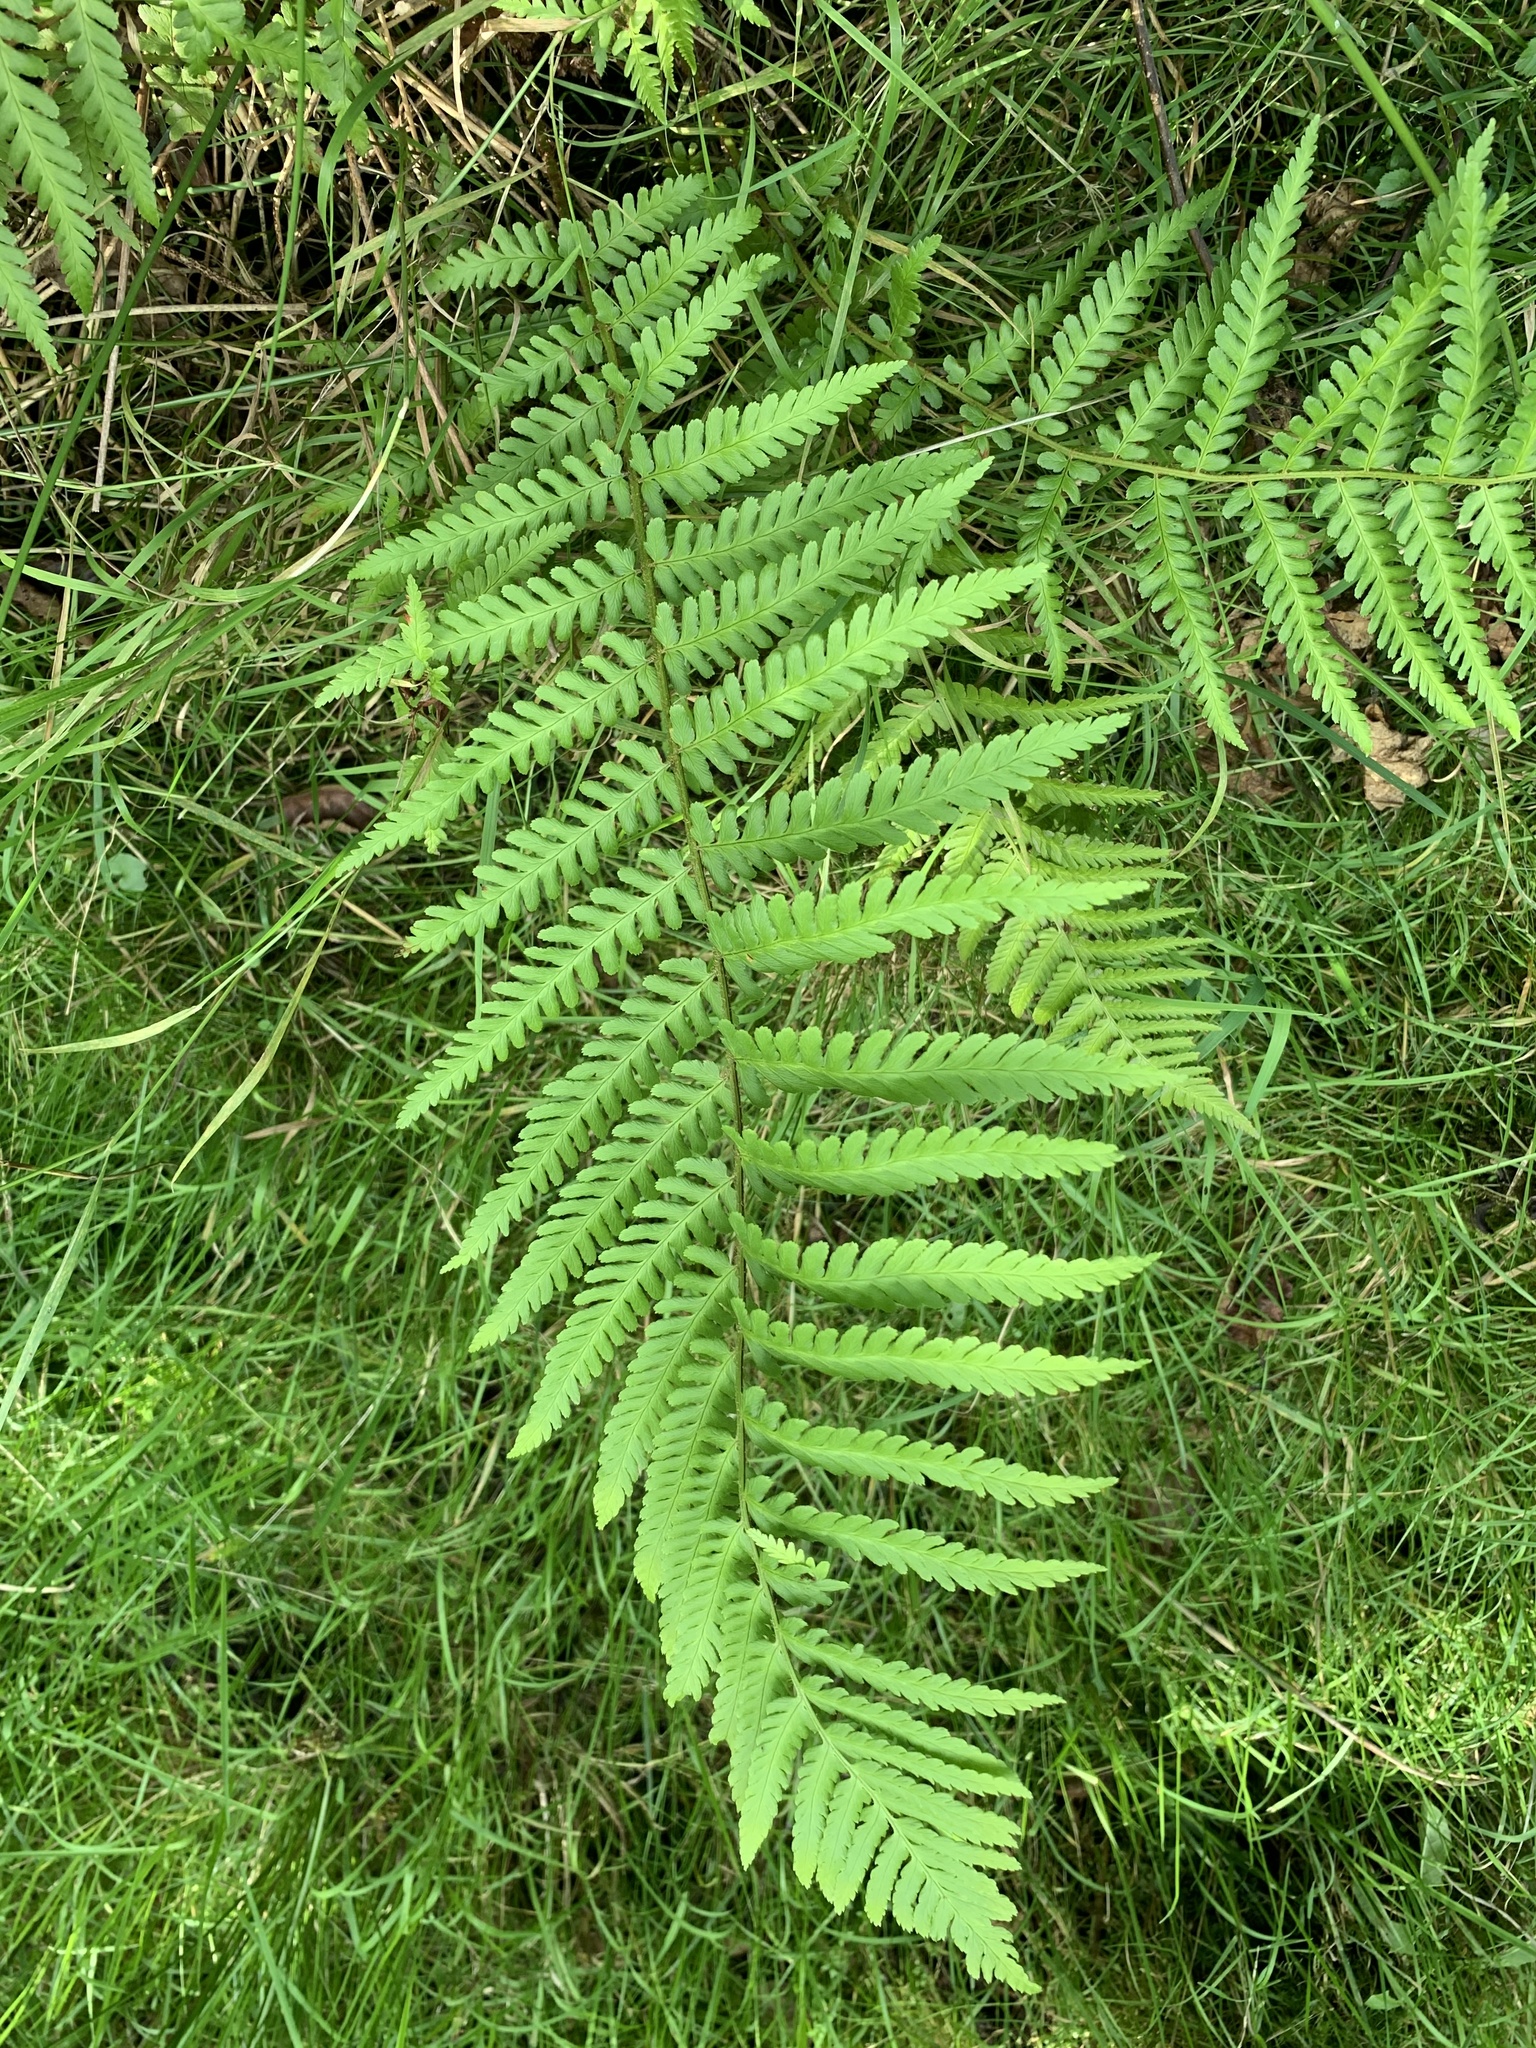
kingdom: Plantae
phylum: Tracheophyta
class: Polypodiopsida
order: Polypodiales
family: Dryopteridaceae
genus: Dryopteris
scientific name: Dryopteris filix-mas
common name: Male fern
